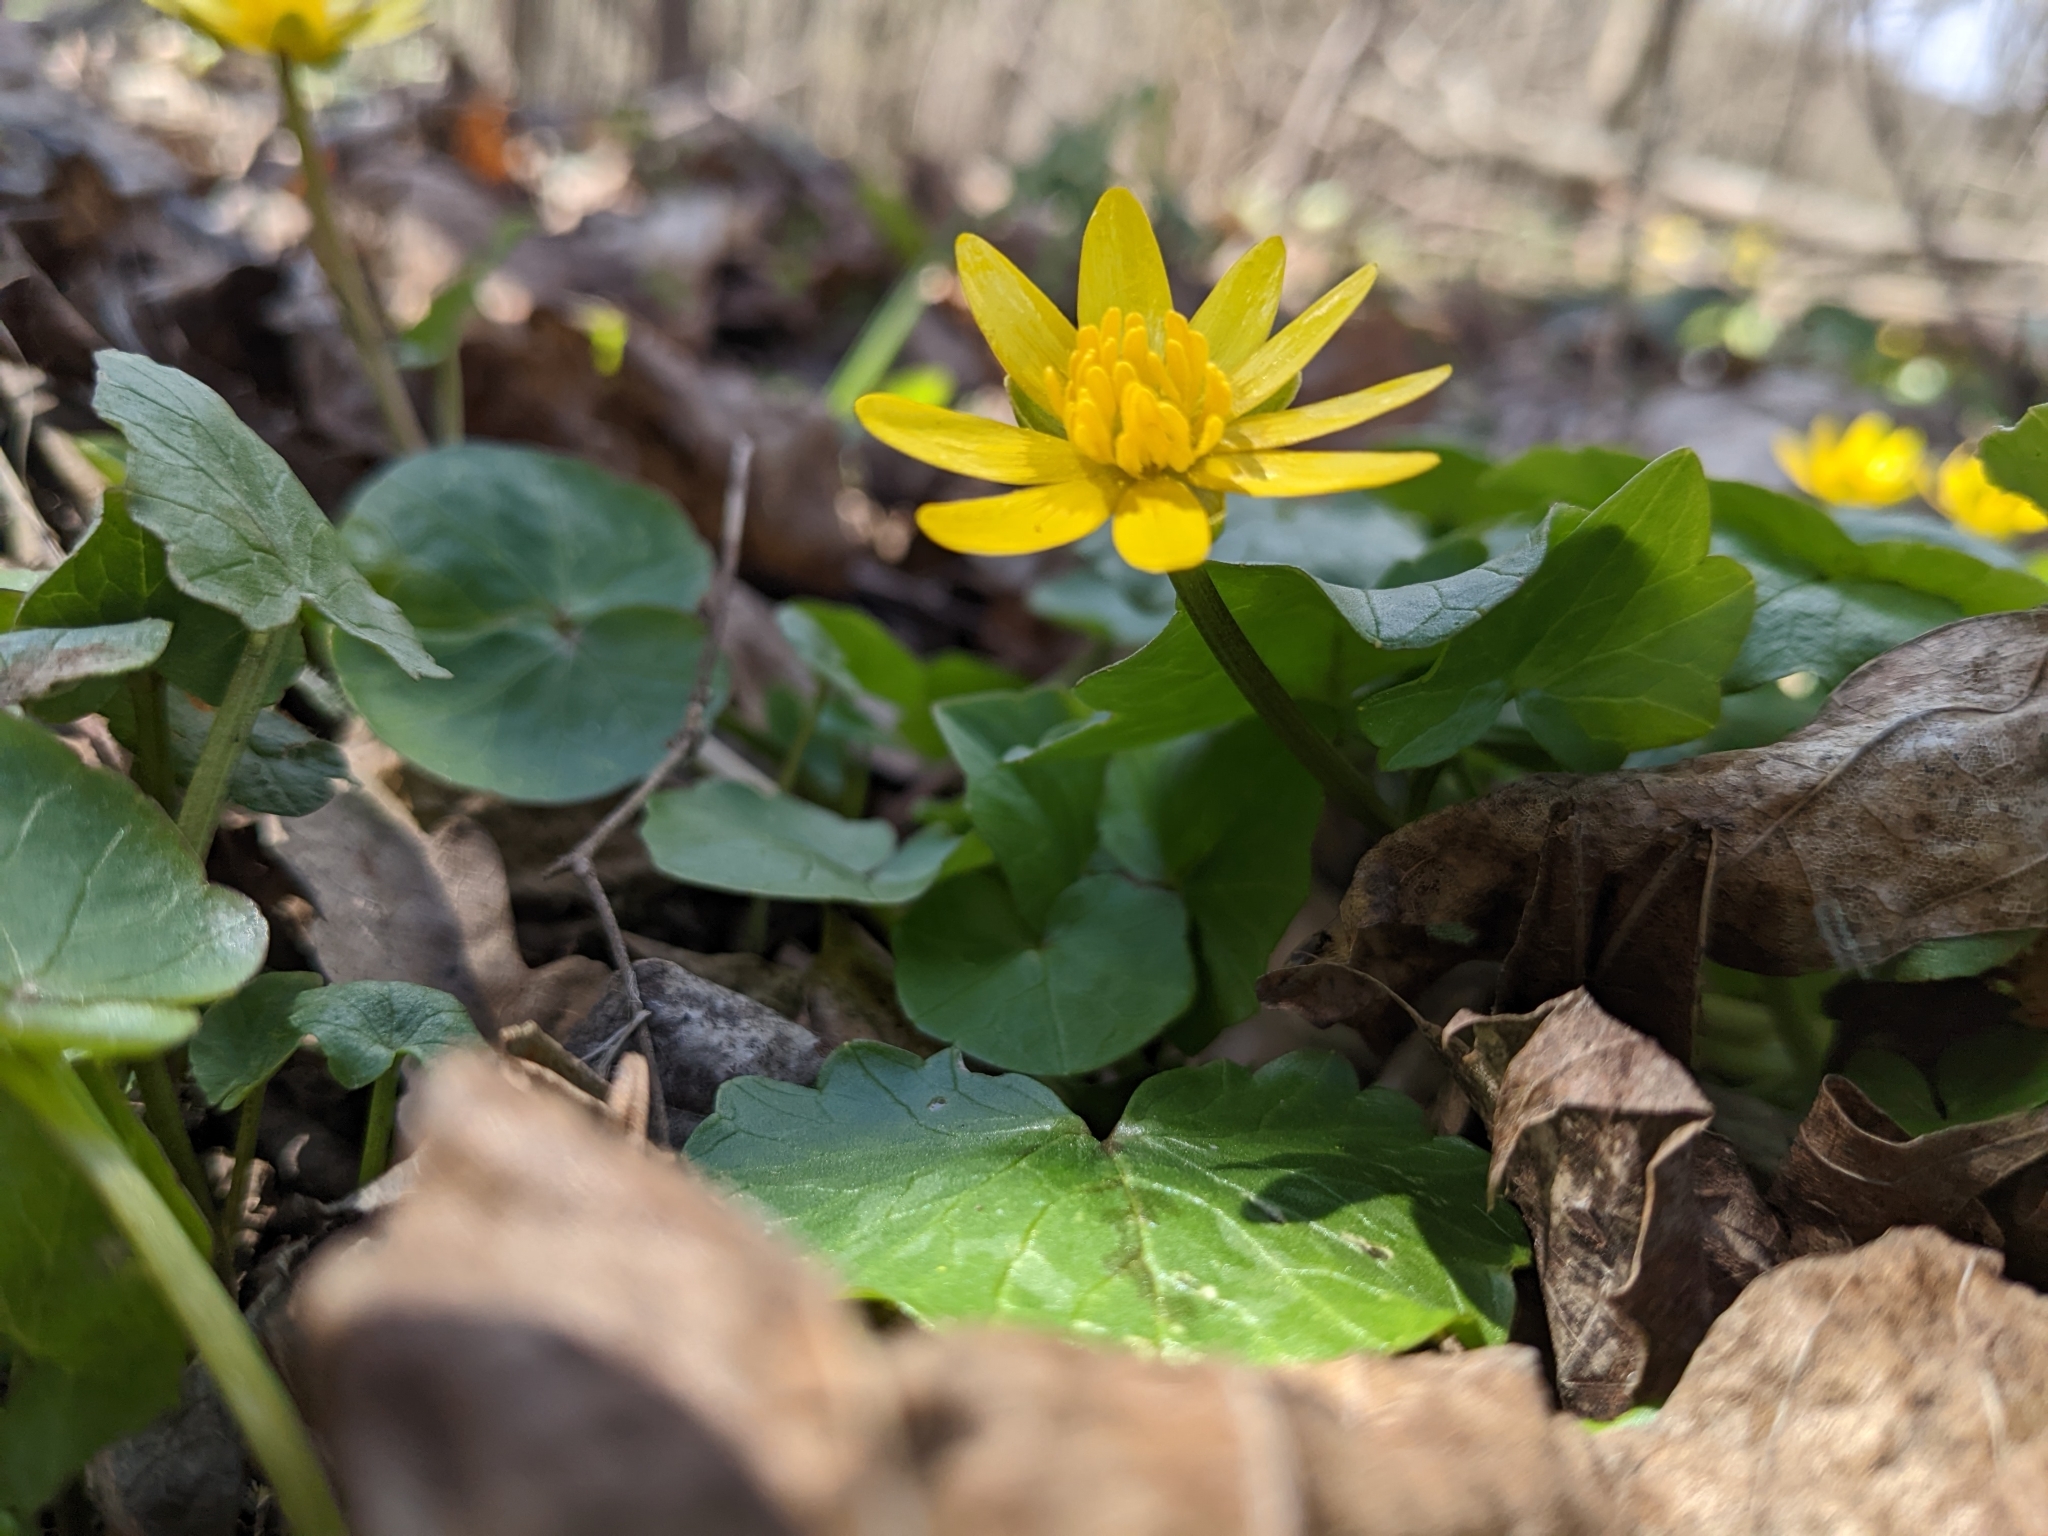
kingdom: Plantae
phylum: Tracheophyta
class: Magnoliopsida
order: Ranunculales
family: Ranunculaceae
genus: Ficaria
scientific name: Ficaria verna
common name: Lesser celandine
